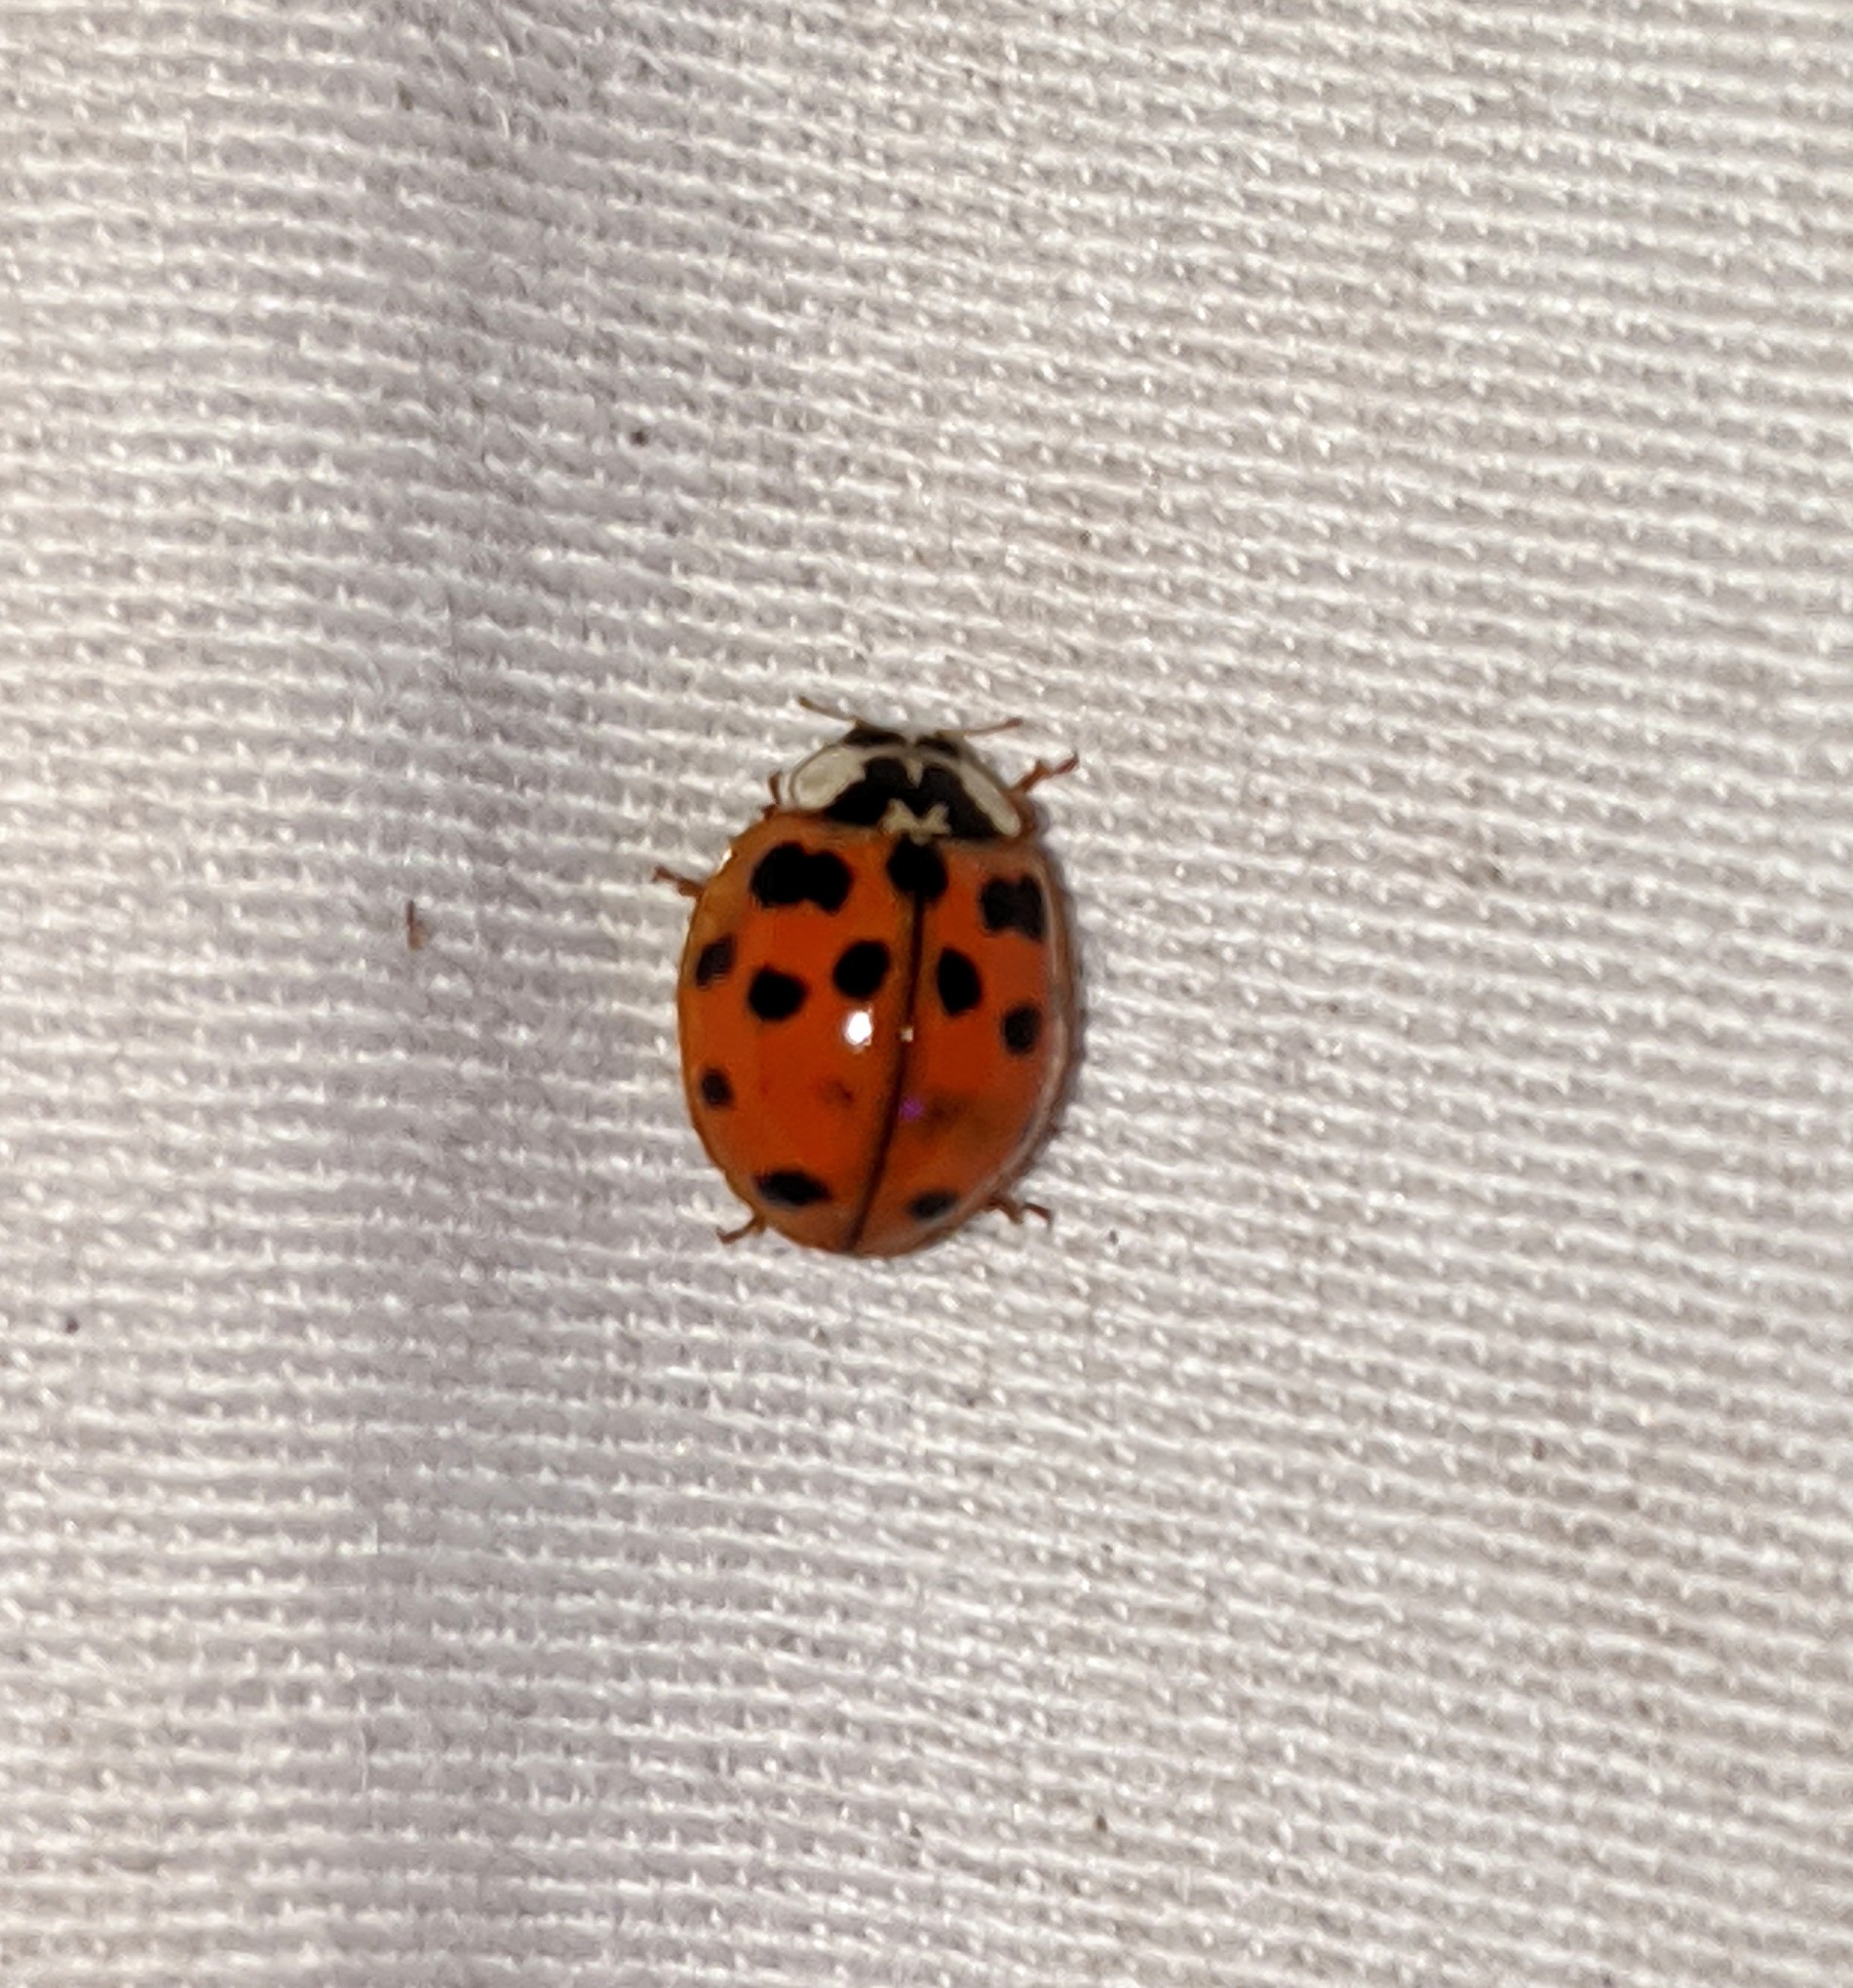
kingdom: Animalia
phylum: Arthropoda
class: Insecta
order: Coleoptera
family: Coccinellidae
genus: Harmonia
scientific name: Harmonia axyridis
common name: Harlequin ladybird
